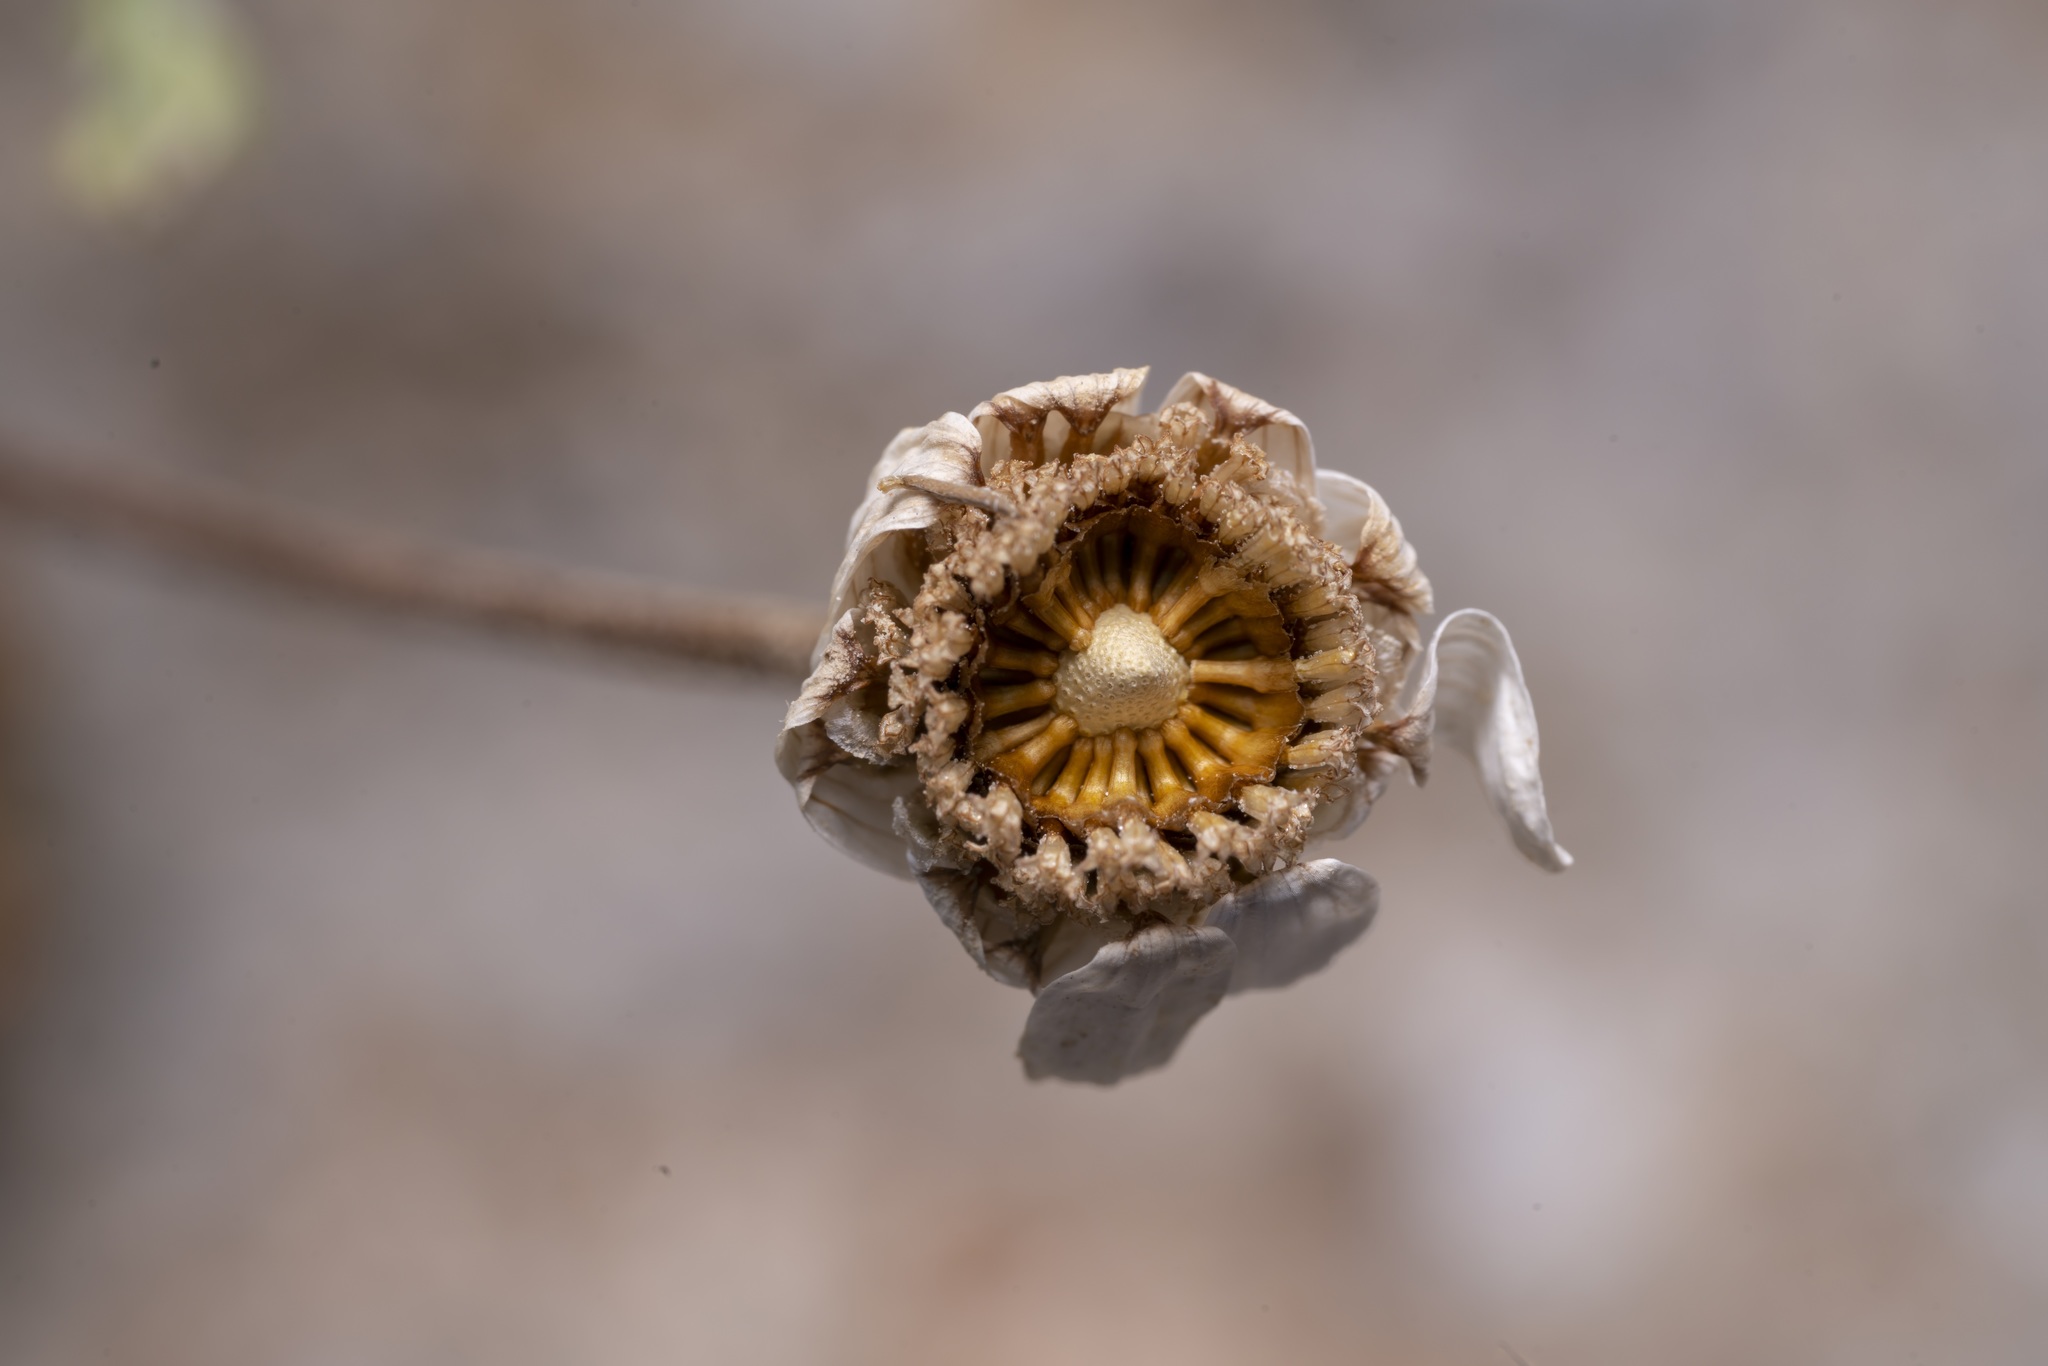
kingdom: Plantae
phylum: Tracheophyta
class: Magnoliopsida
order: Asterales
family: Asteraceae
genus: Anthemis
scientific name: Anthemis macrotis
